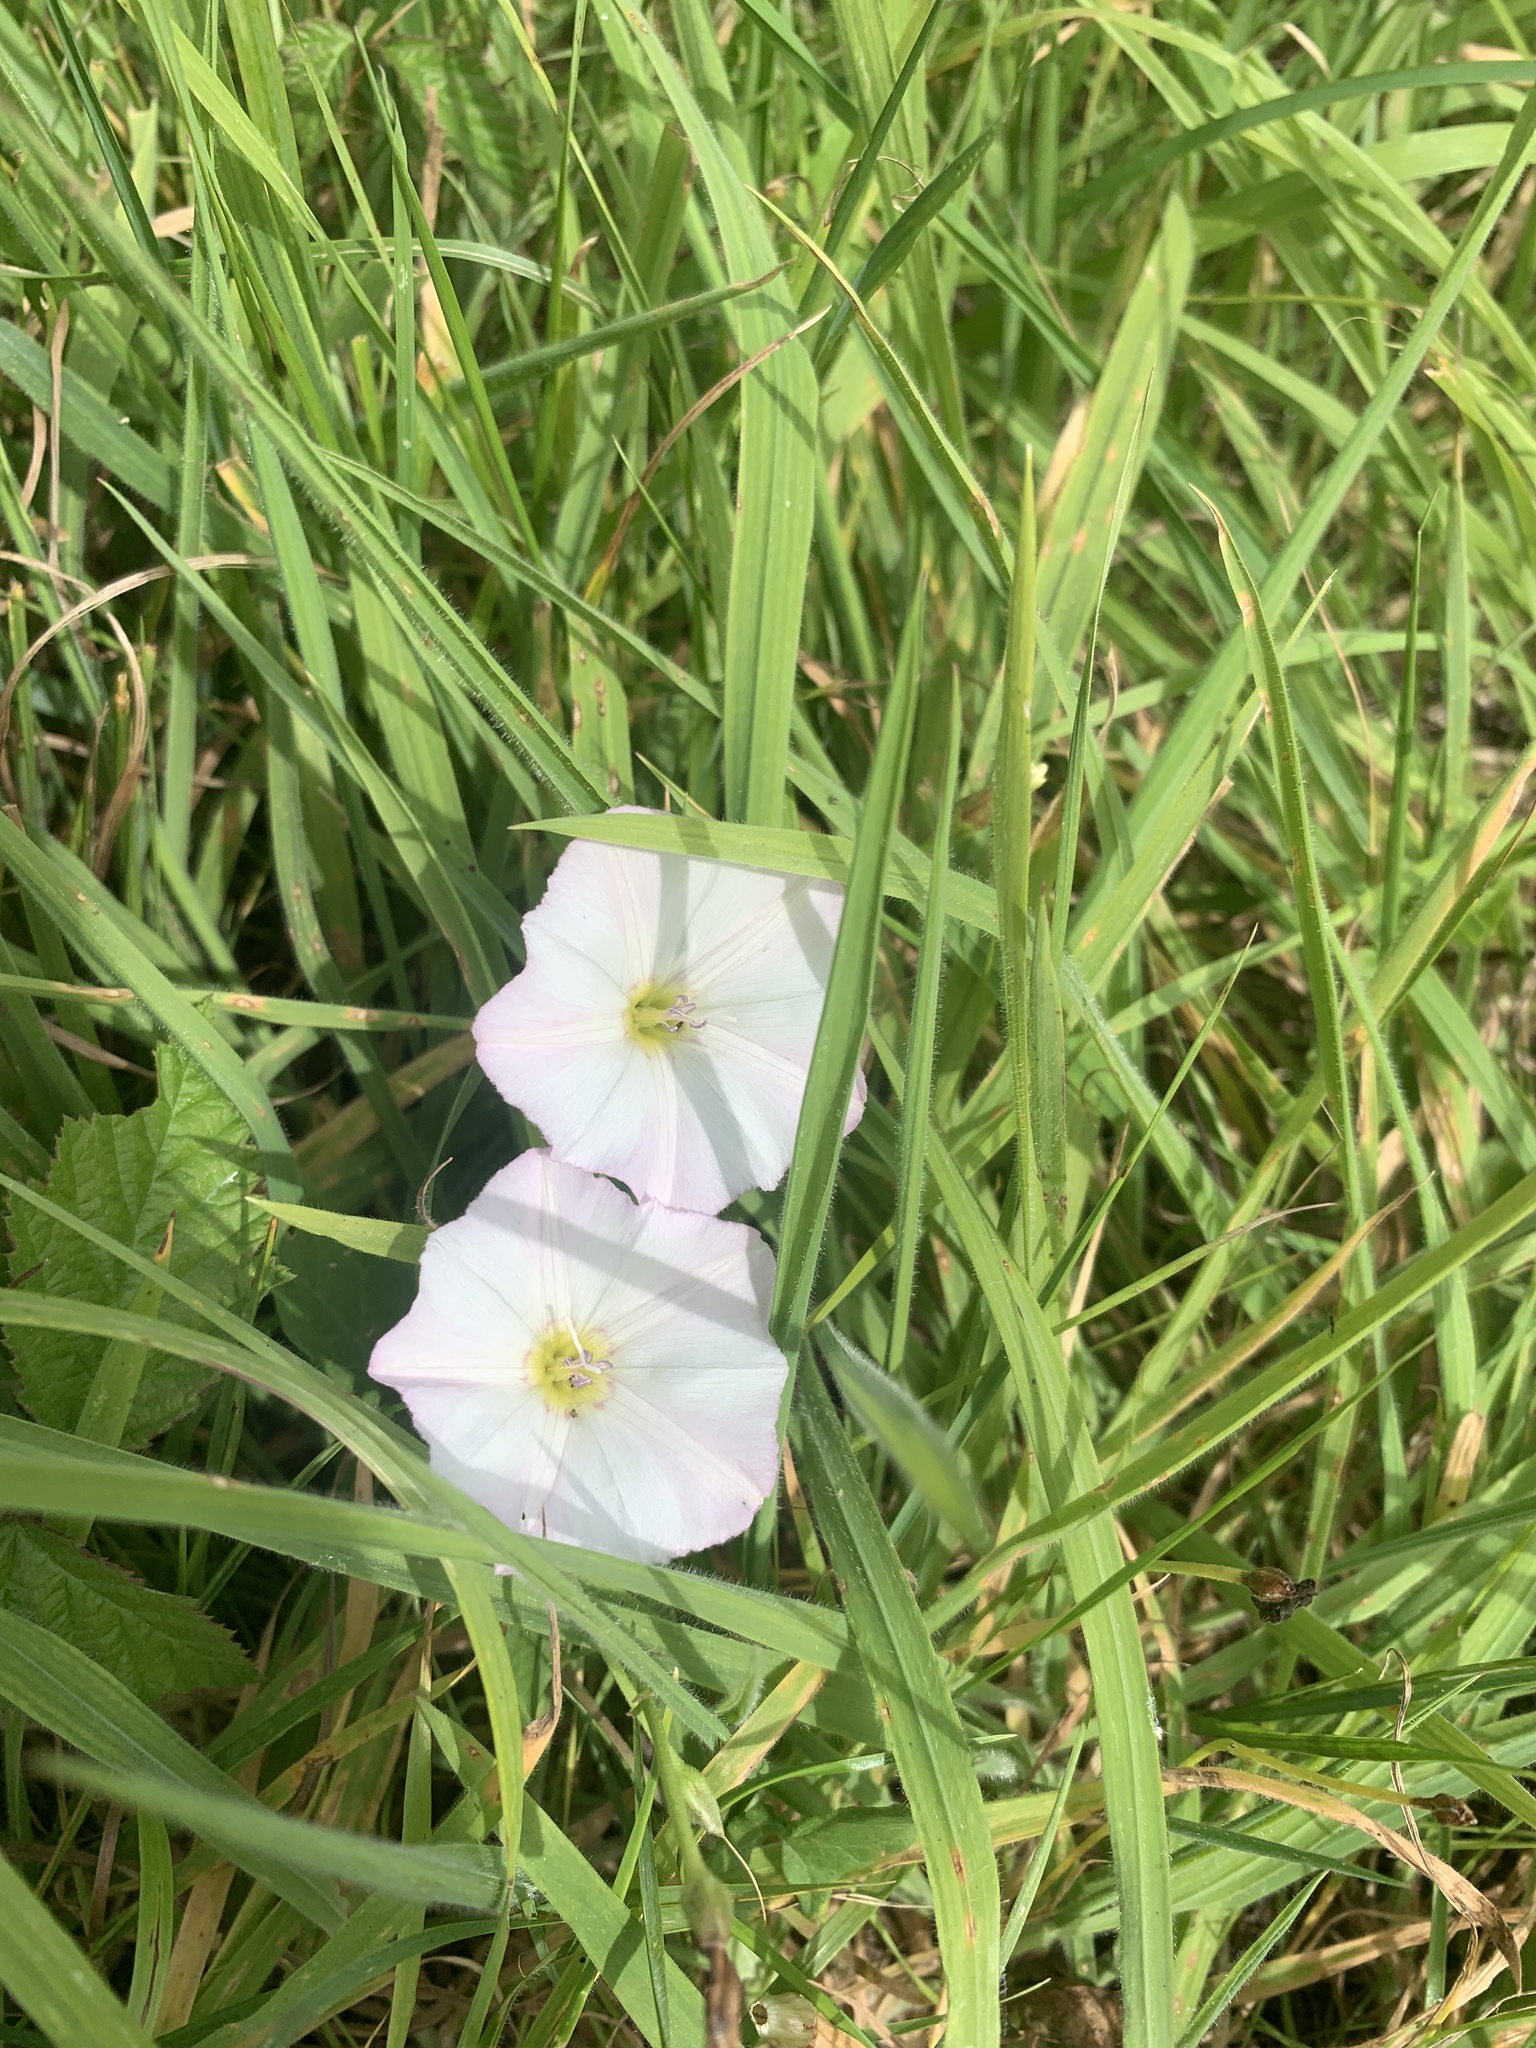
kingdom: Plantae
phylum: Tracheophyta
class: Magnoliopsida
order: Solanales
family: Convolvulaceae
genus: Convolvulus
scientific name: Convolvulus arvensis
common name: Field bindweed
